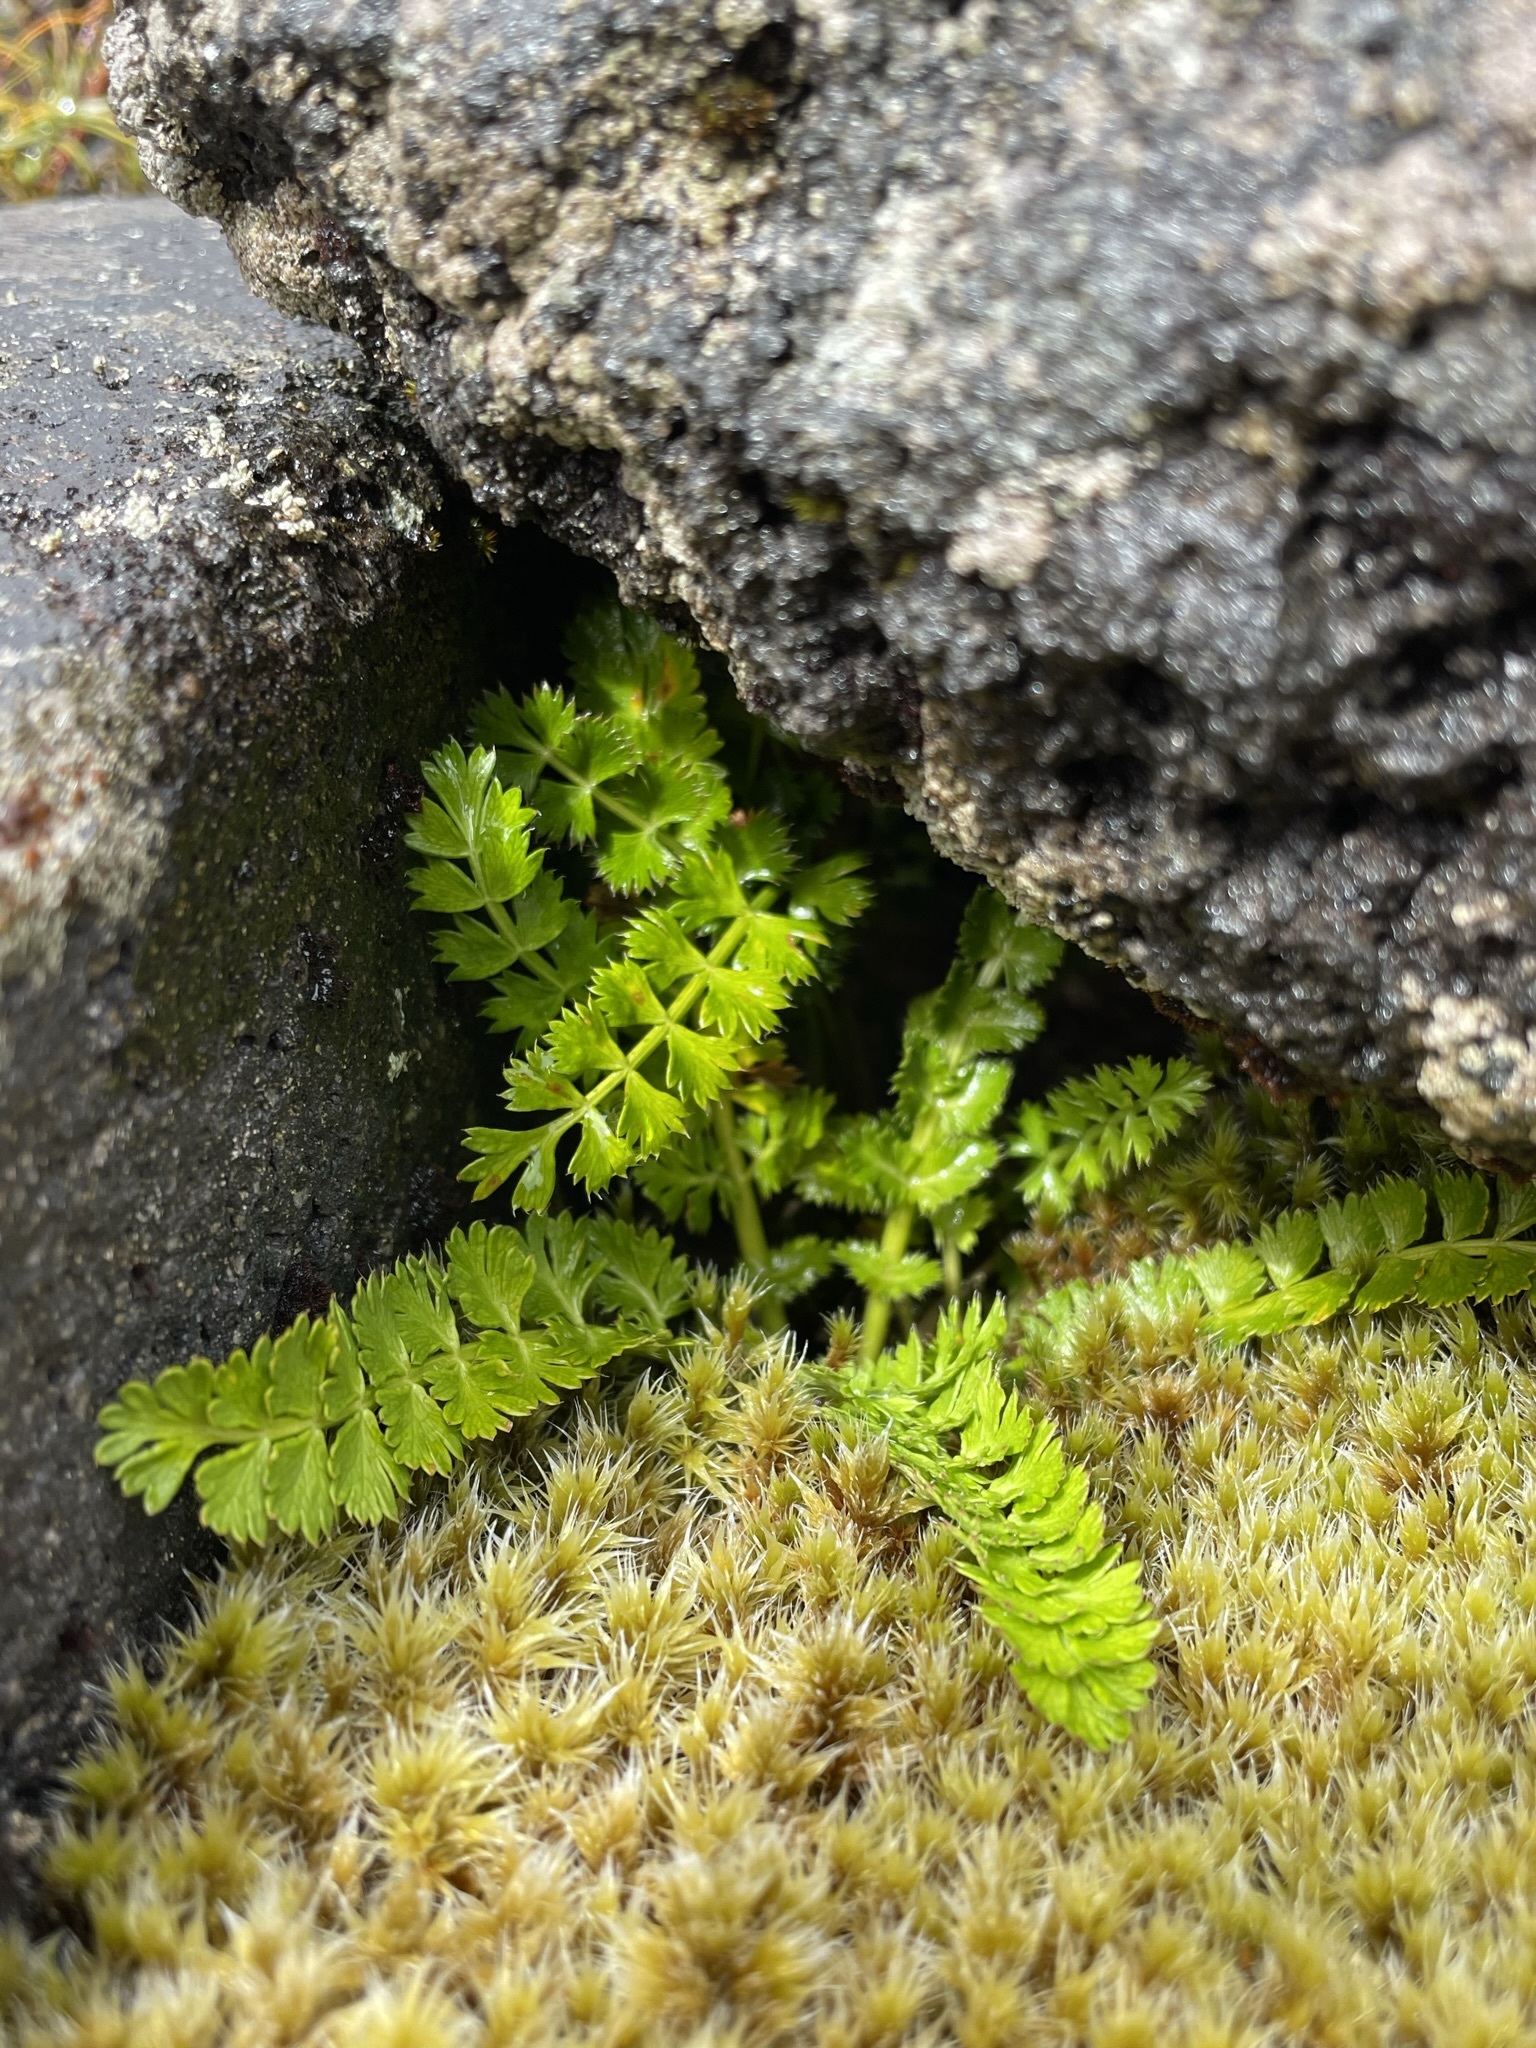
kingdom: Plantae
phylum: Tracheophyta
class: Magnoliopsida
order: Apiales
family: Apiaceae
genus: Anisotome
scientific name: Anisotome aromatica
